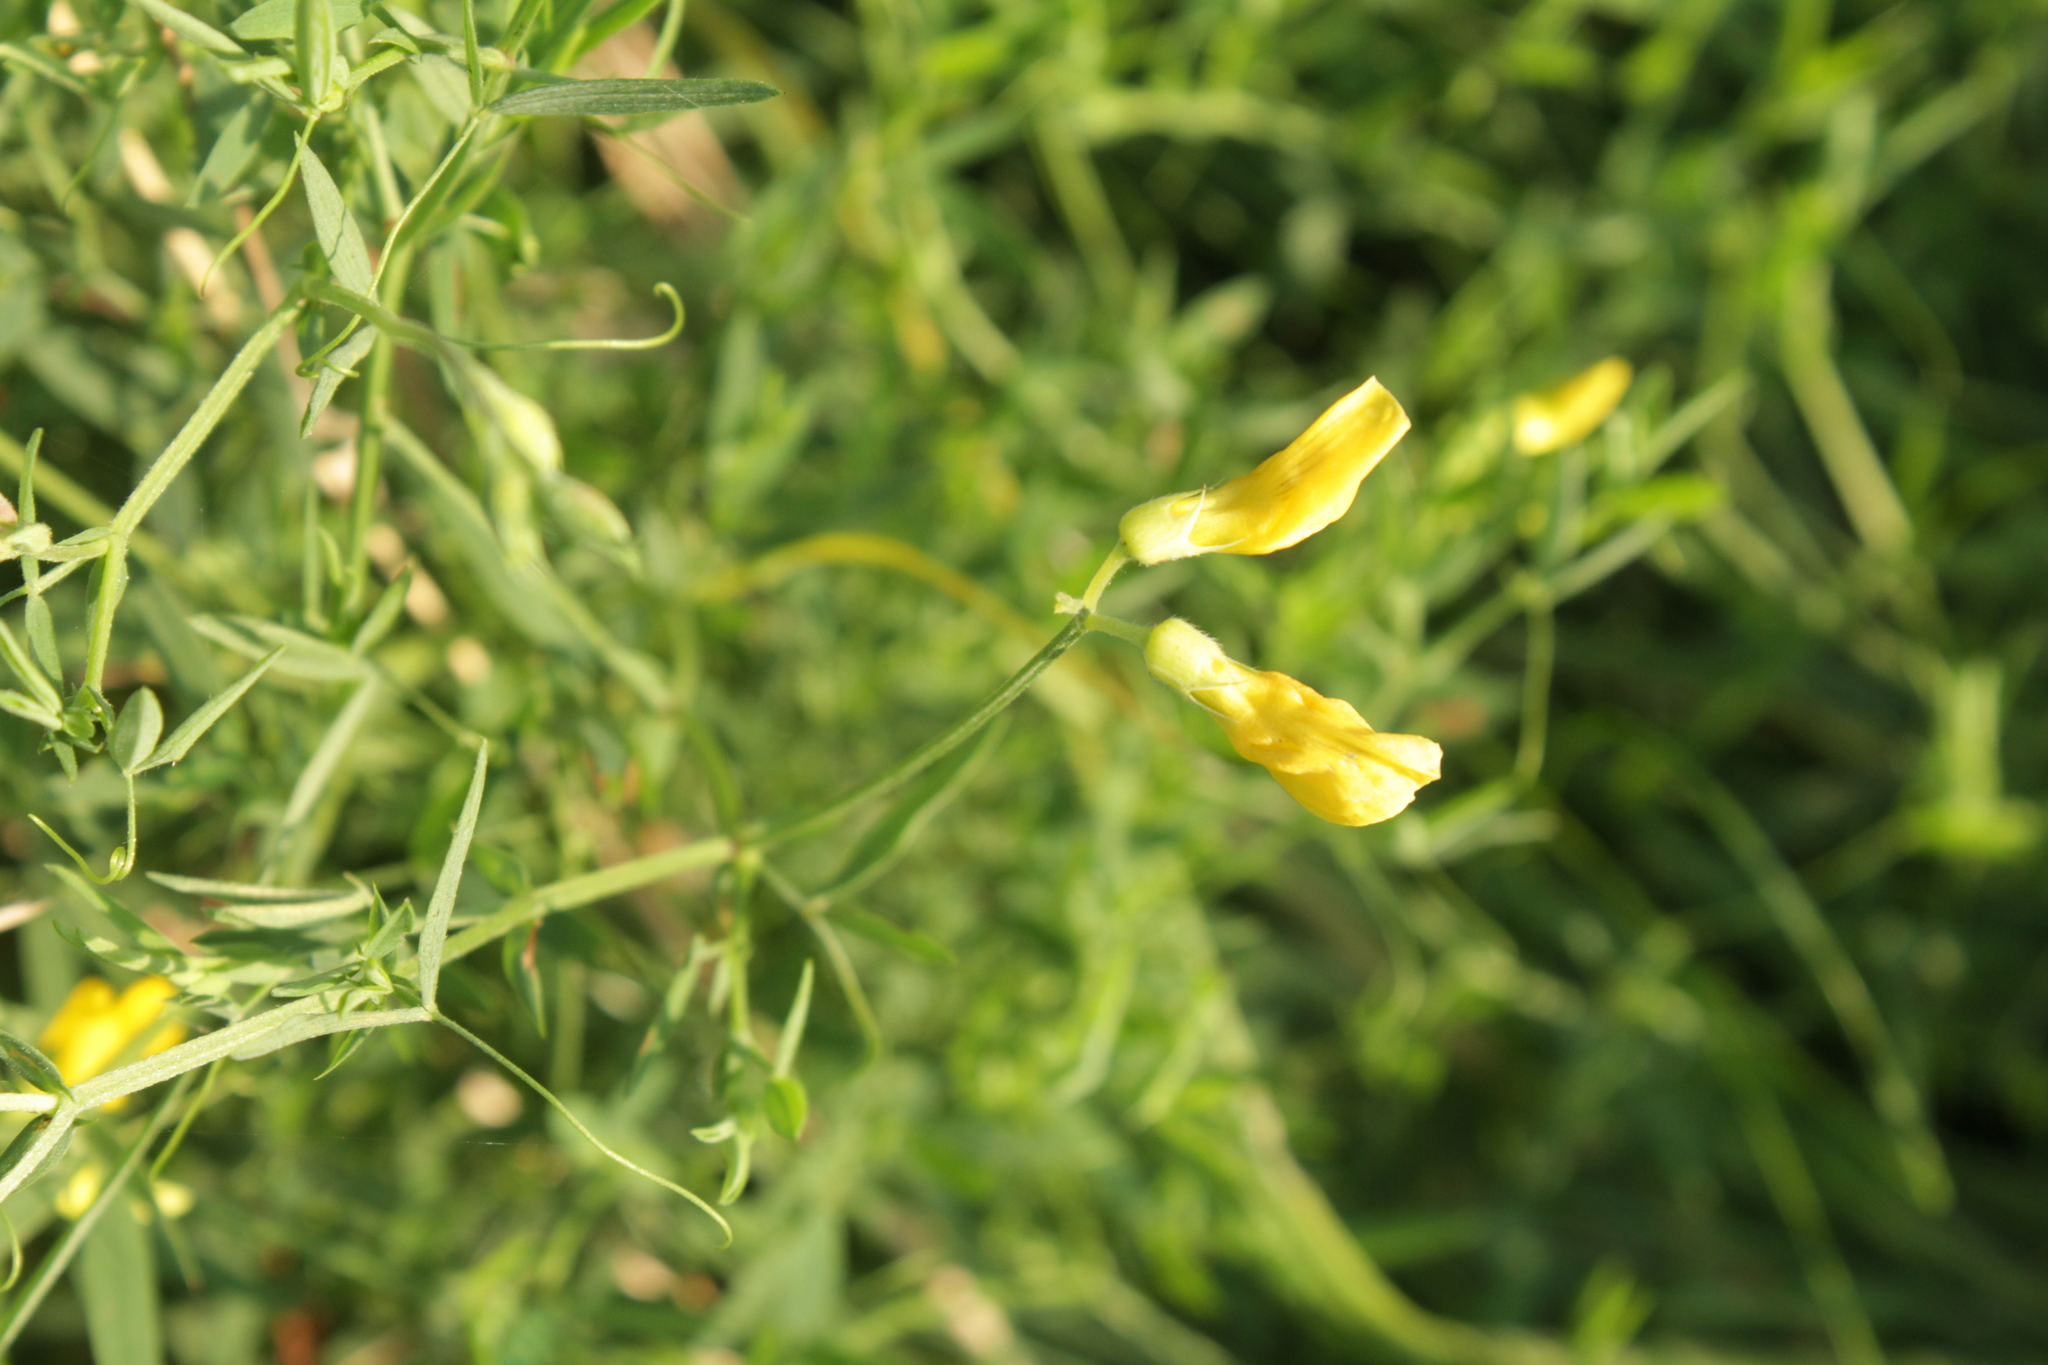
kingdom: Plantae
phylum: Tracheophyta
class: Magnoliopsida
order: Fabales
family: Fabaceae
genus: Lathyrus
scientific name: Lathyrus pratensis
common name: Meadow vetchling
